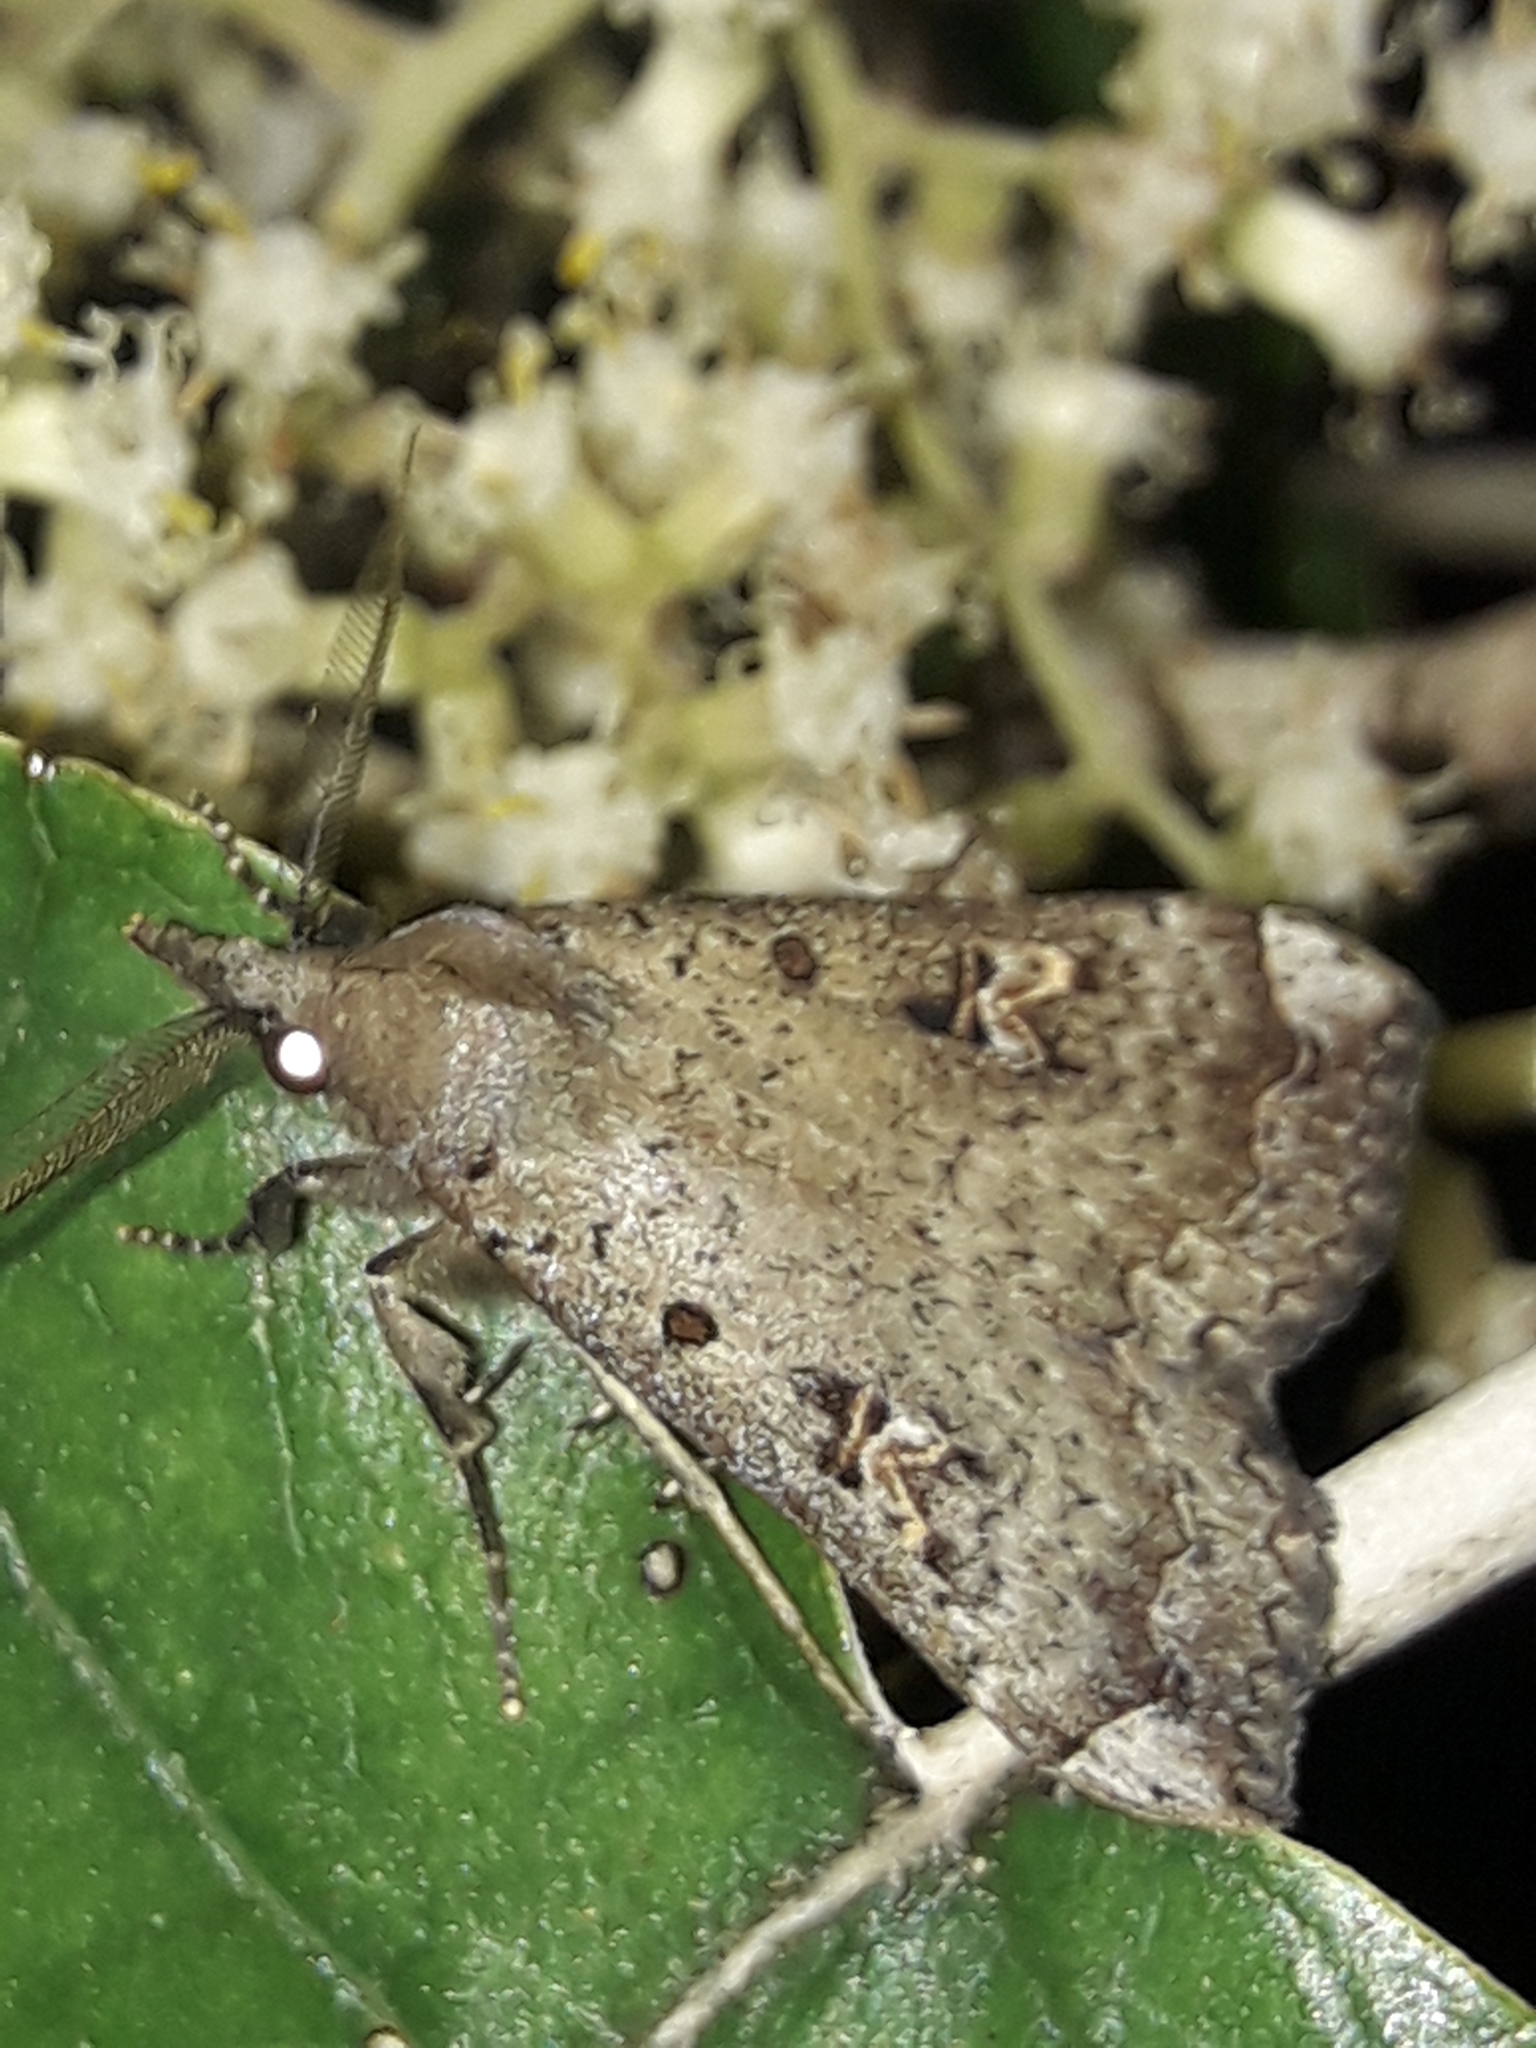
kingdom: Animalia
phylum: Arthropoda
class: Insecta
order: Lepidoptera
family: Erebidae
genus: Rhapsa
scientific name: Rhapsa scotosialis
